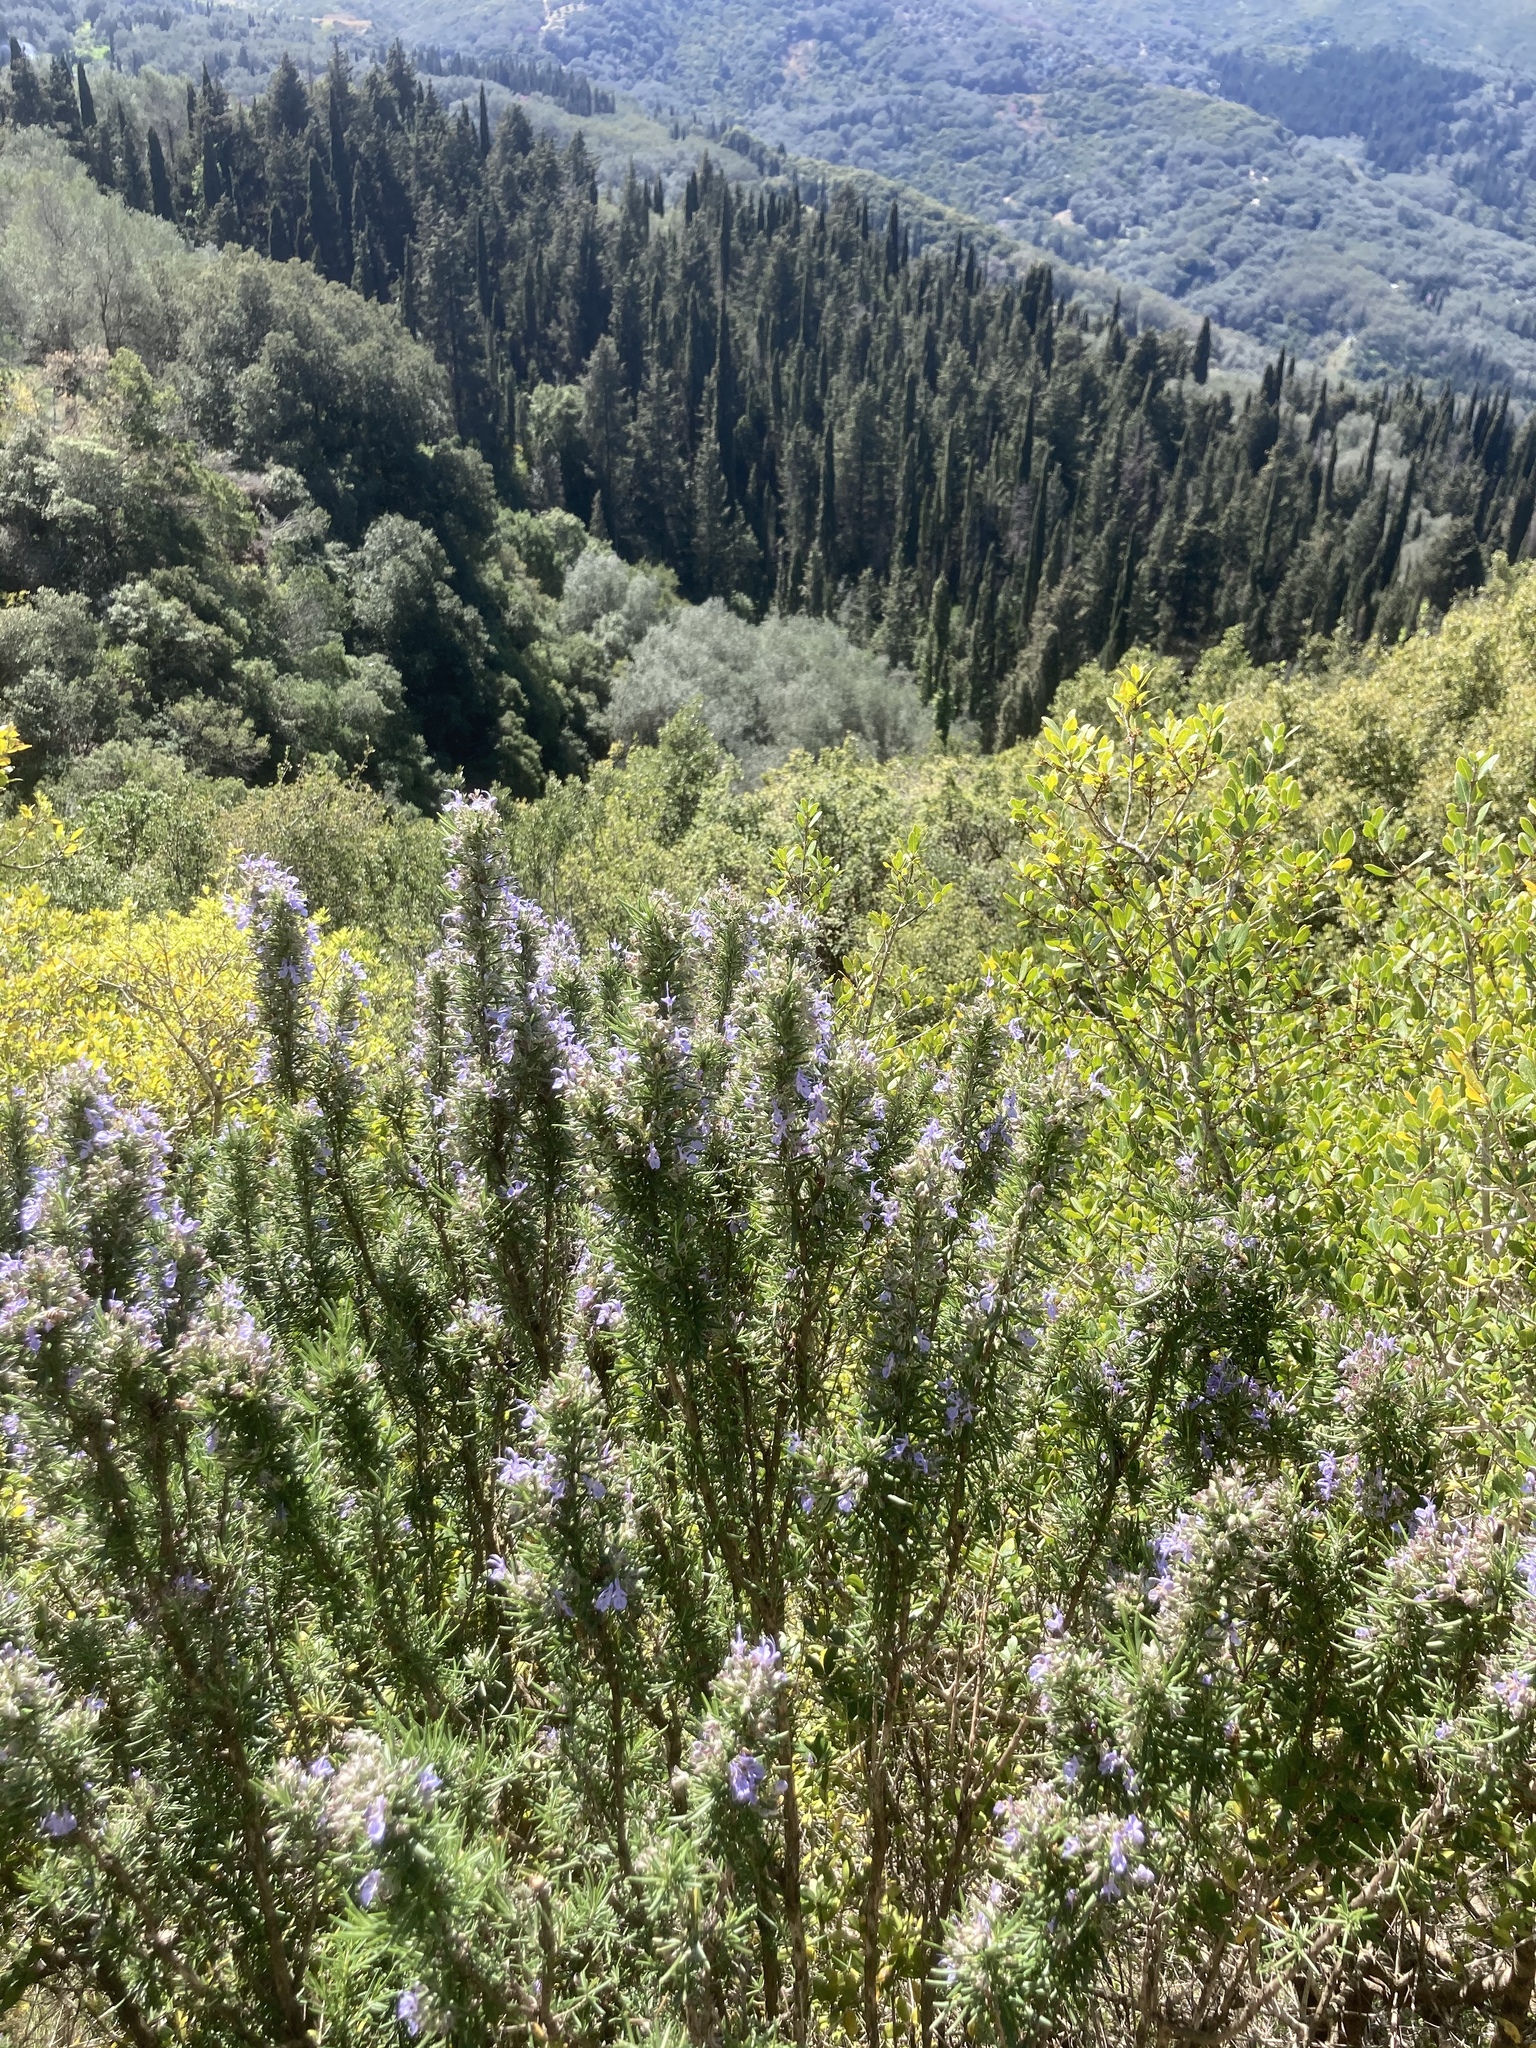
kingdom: Plantae
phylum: Tracheophyta
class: Magnoliopsida
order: Lamiales
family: Lamiaceae
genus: Salvia
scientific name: Salvia rosmarinus
